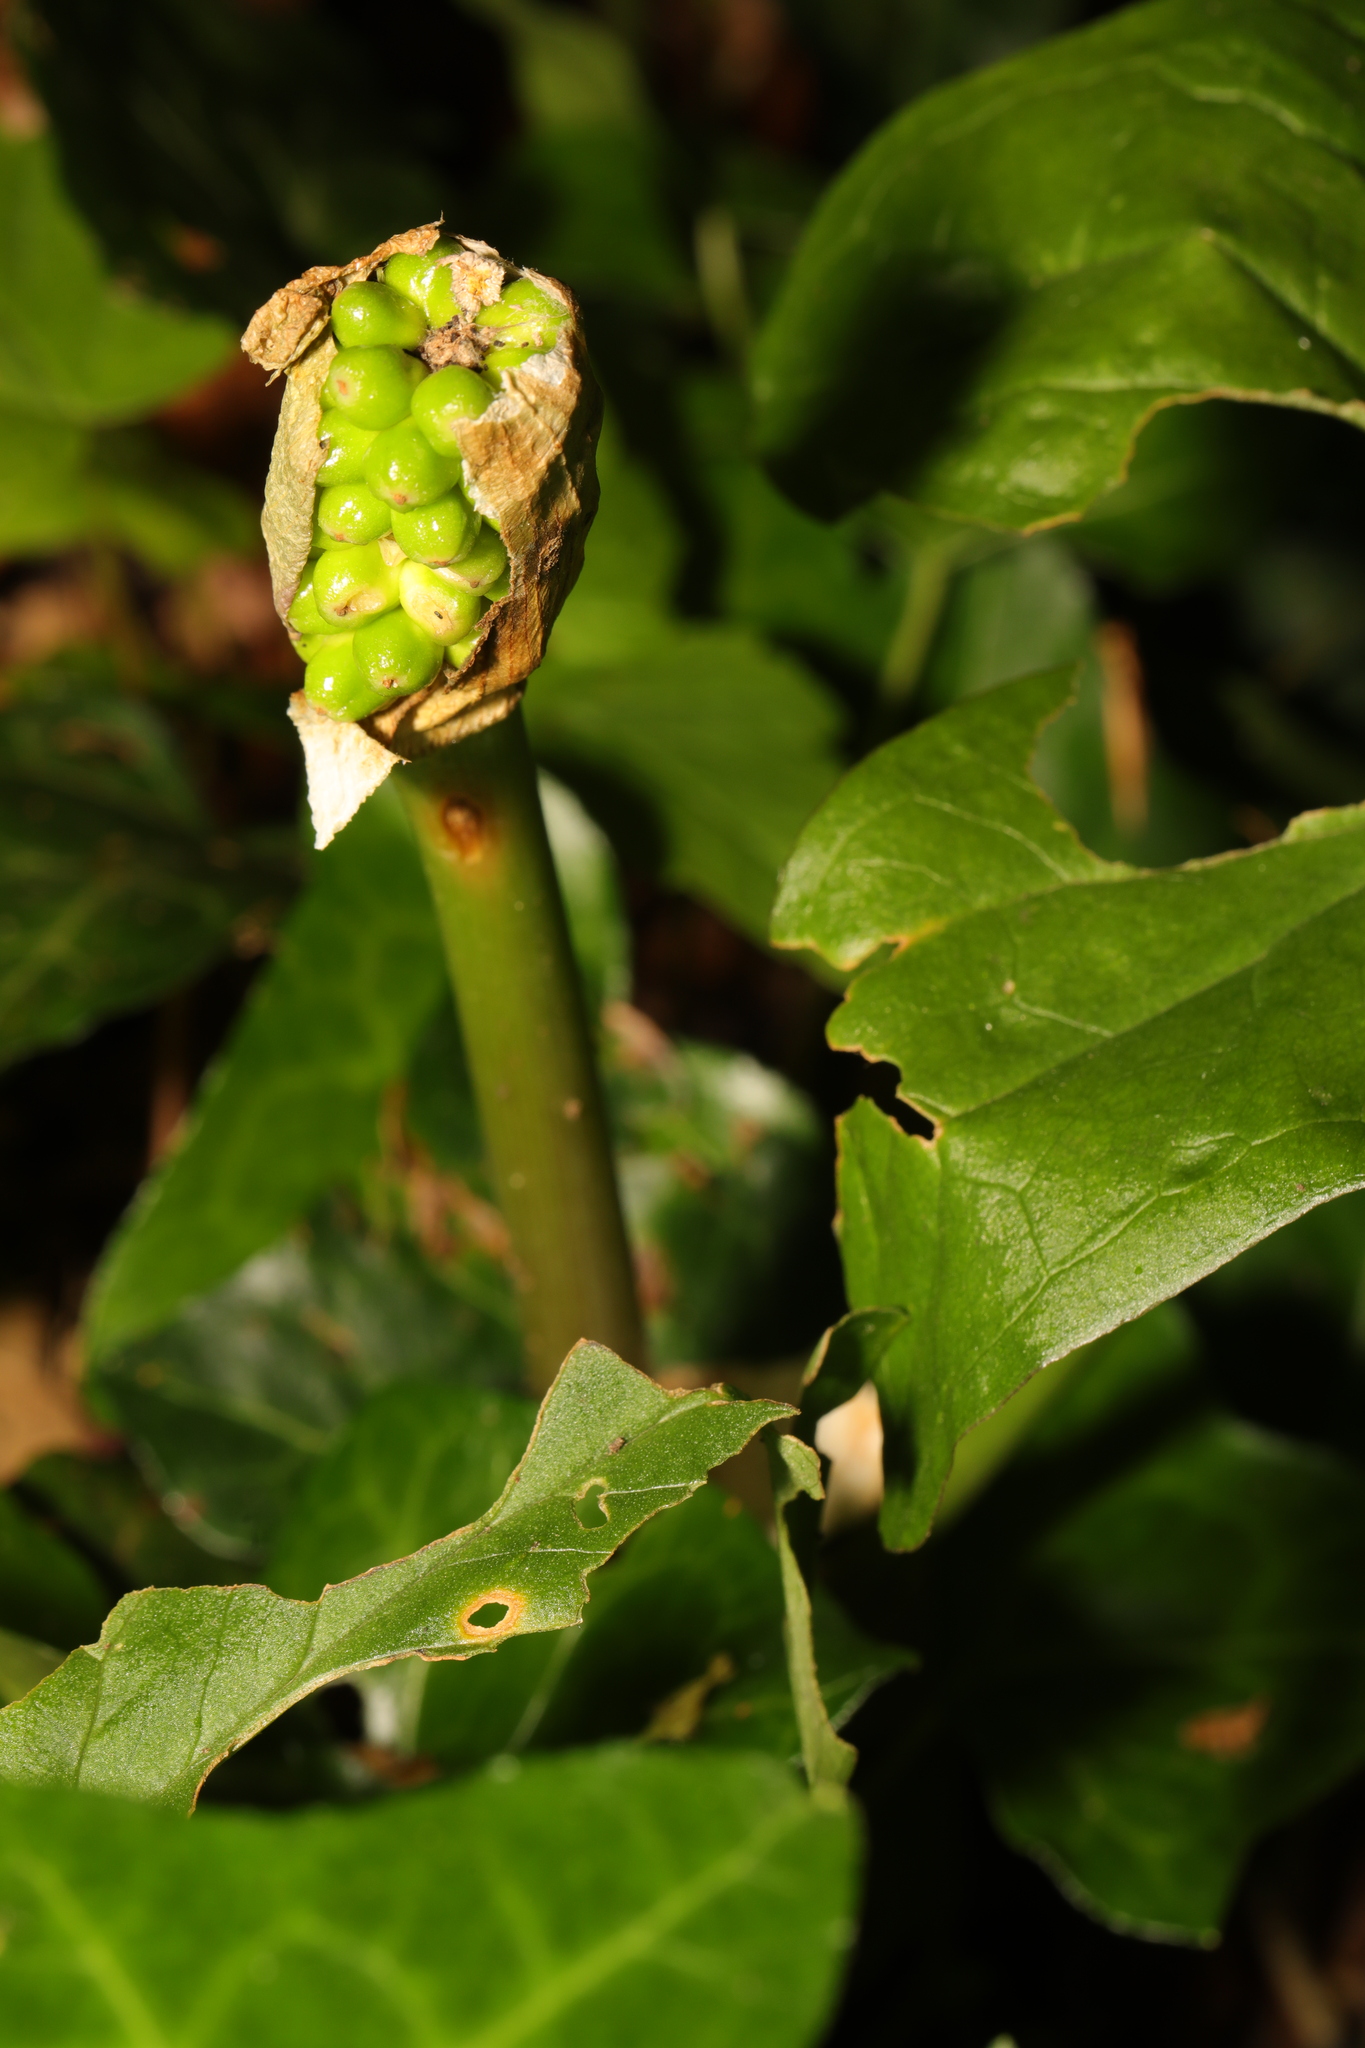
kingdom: Plantae
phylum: Tracheophyta
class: Liliopsida
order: Alismatales
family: Araceae
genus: Arum
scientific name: Arum maculatum
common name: Lords-and-ladies
